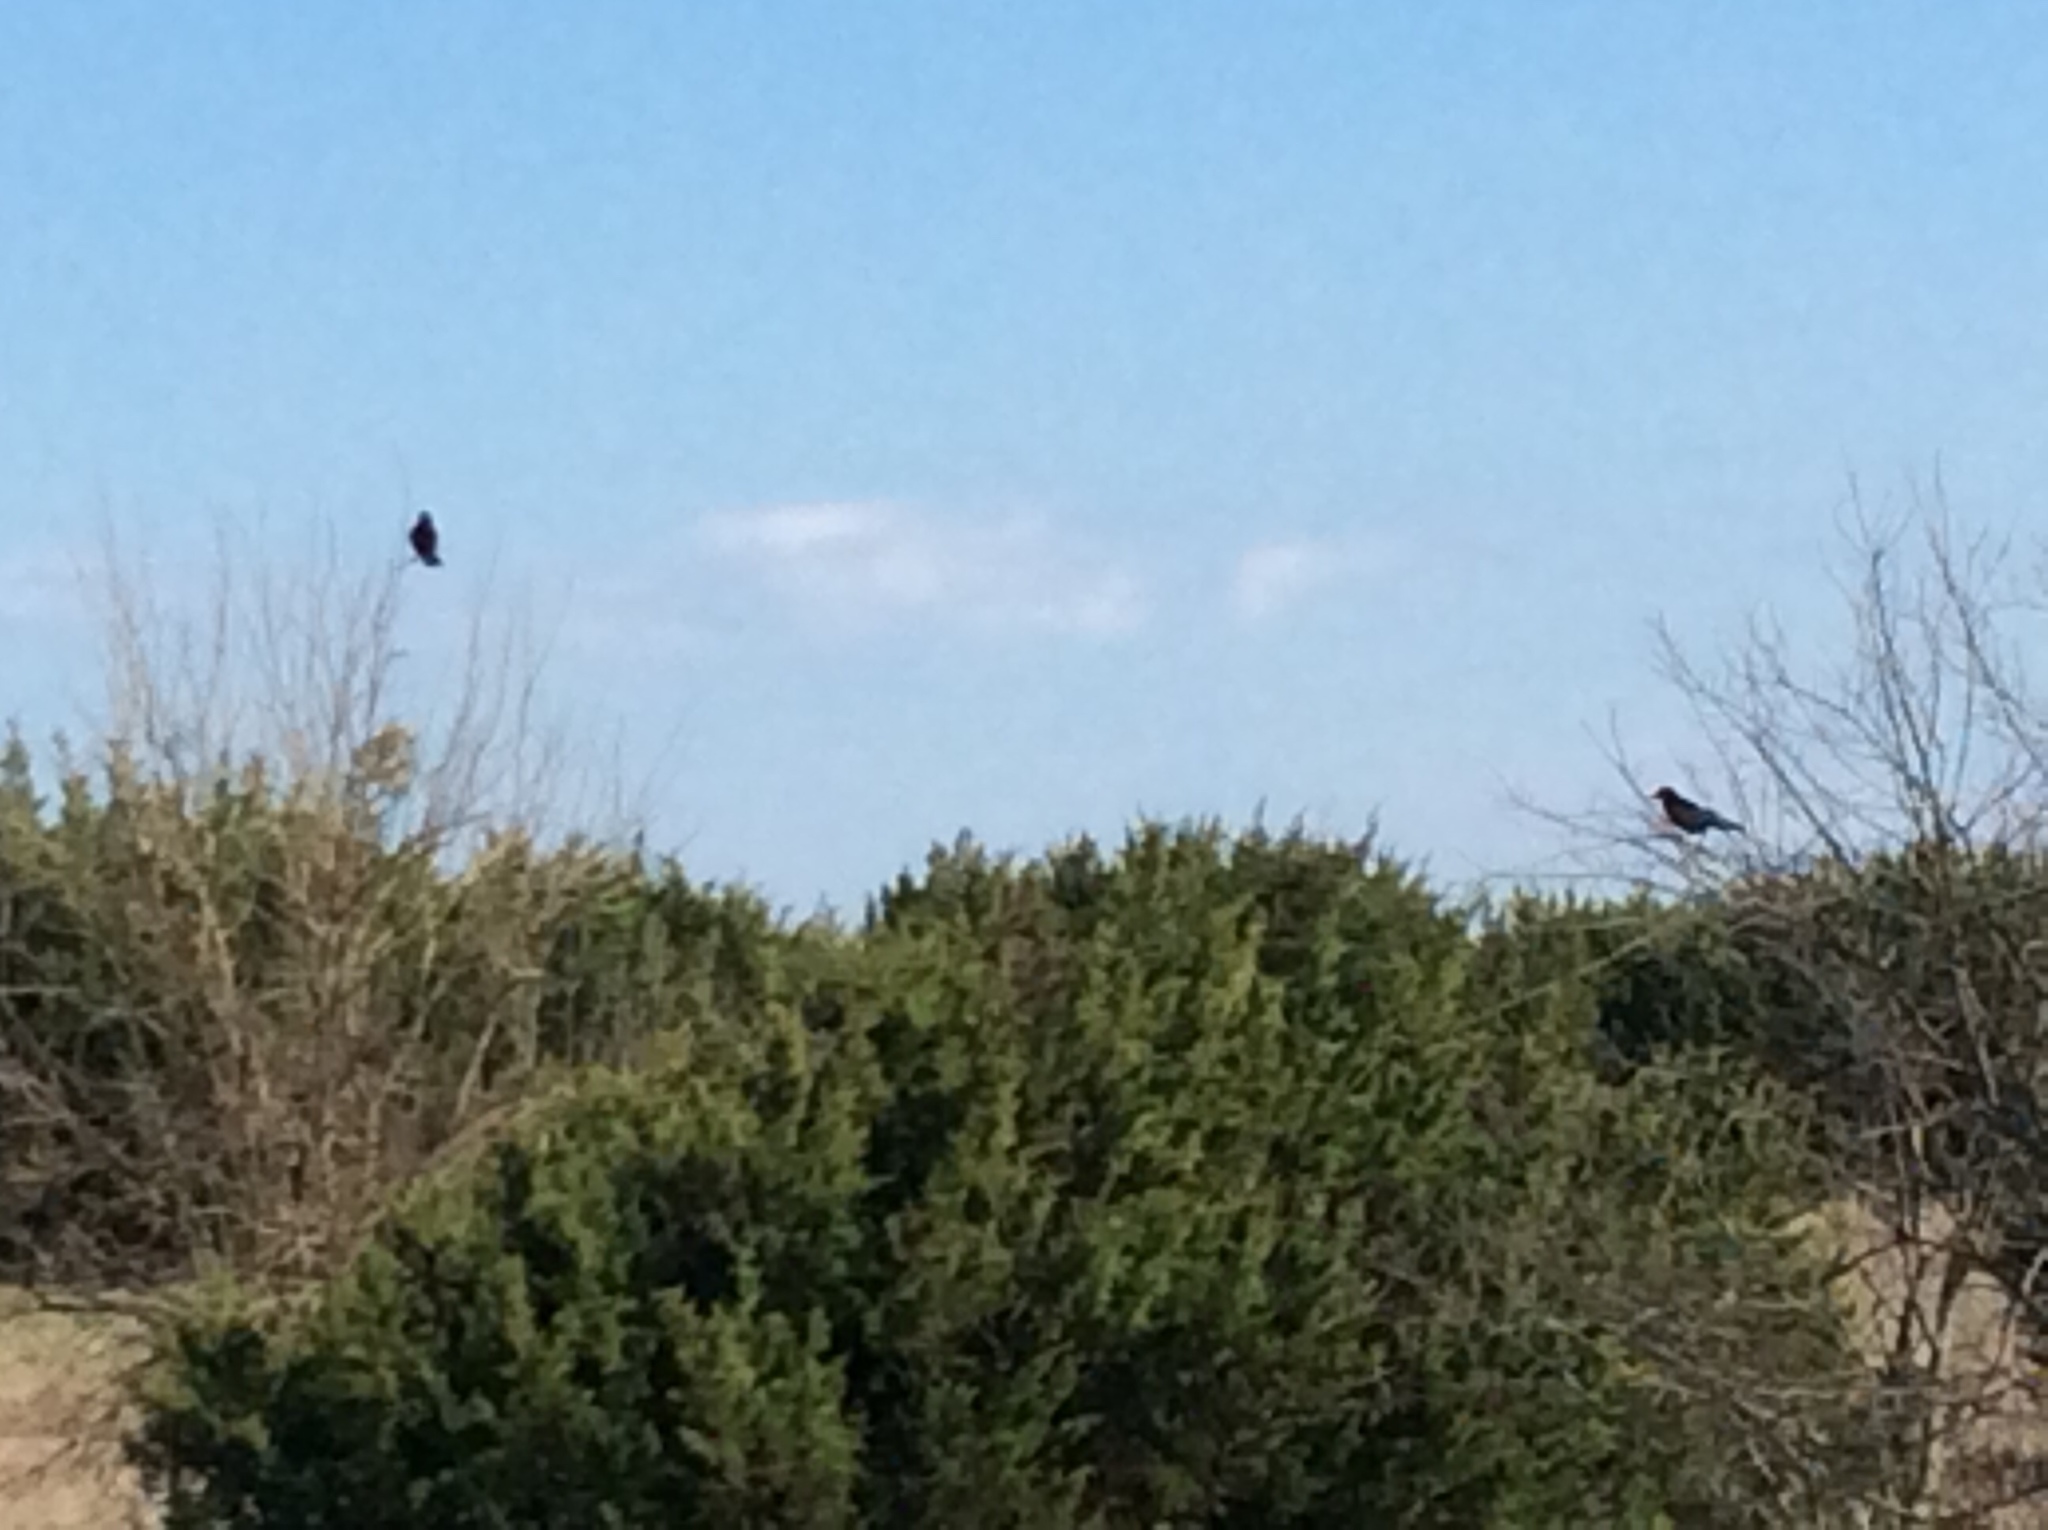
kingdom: Animalia
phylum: Chordata
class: Aves
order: Passeriformes
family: Corvidae
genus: Corvus
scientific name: Corvus brachyrhynchos
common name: American crow
